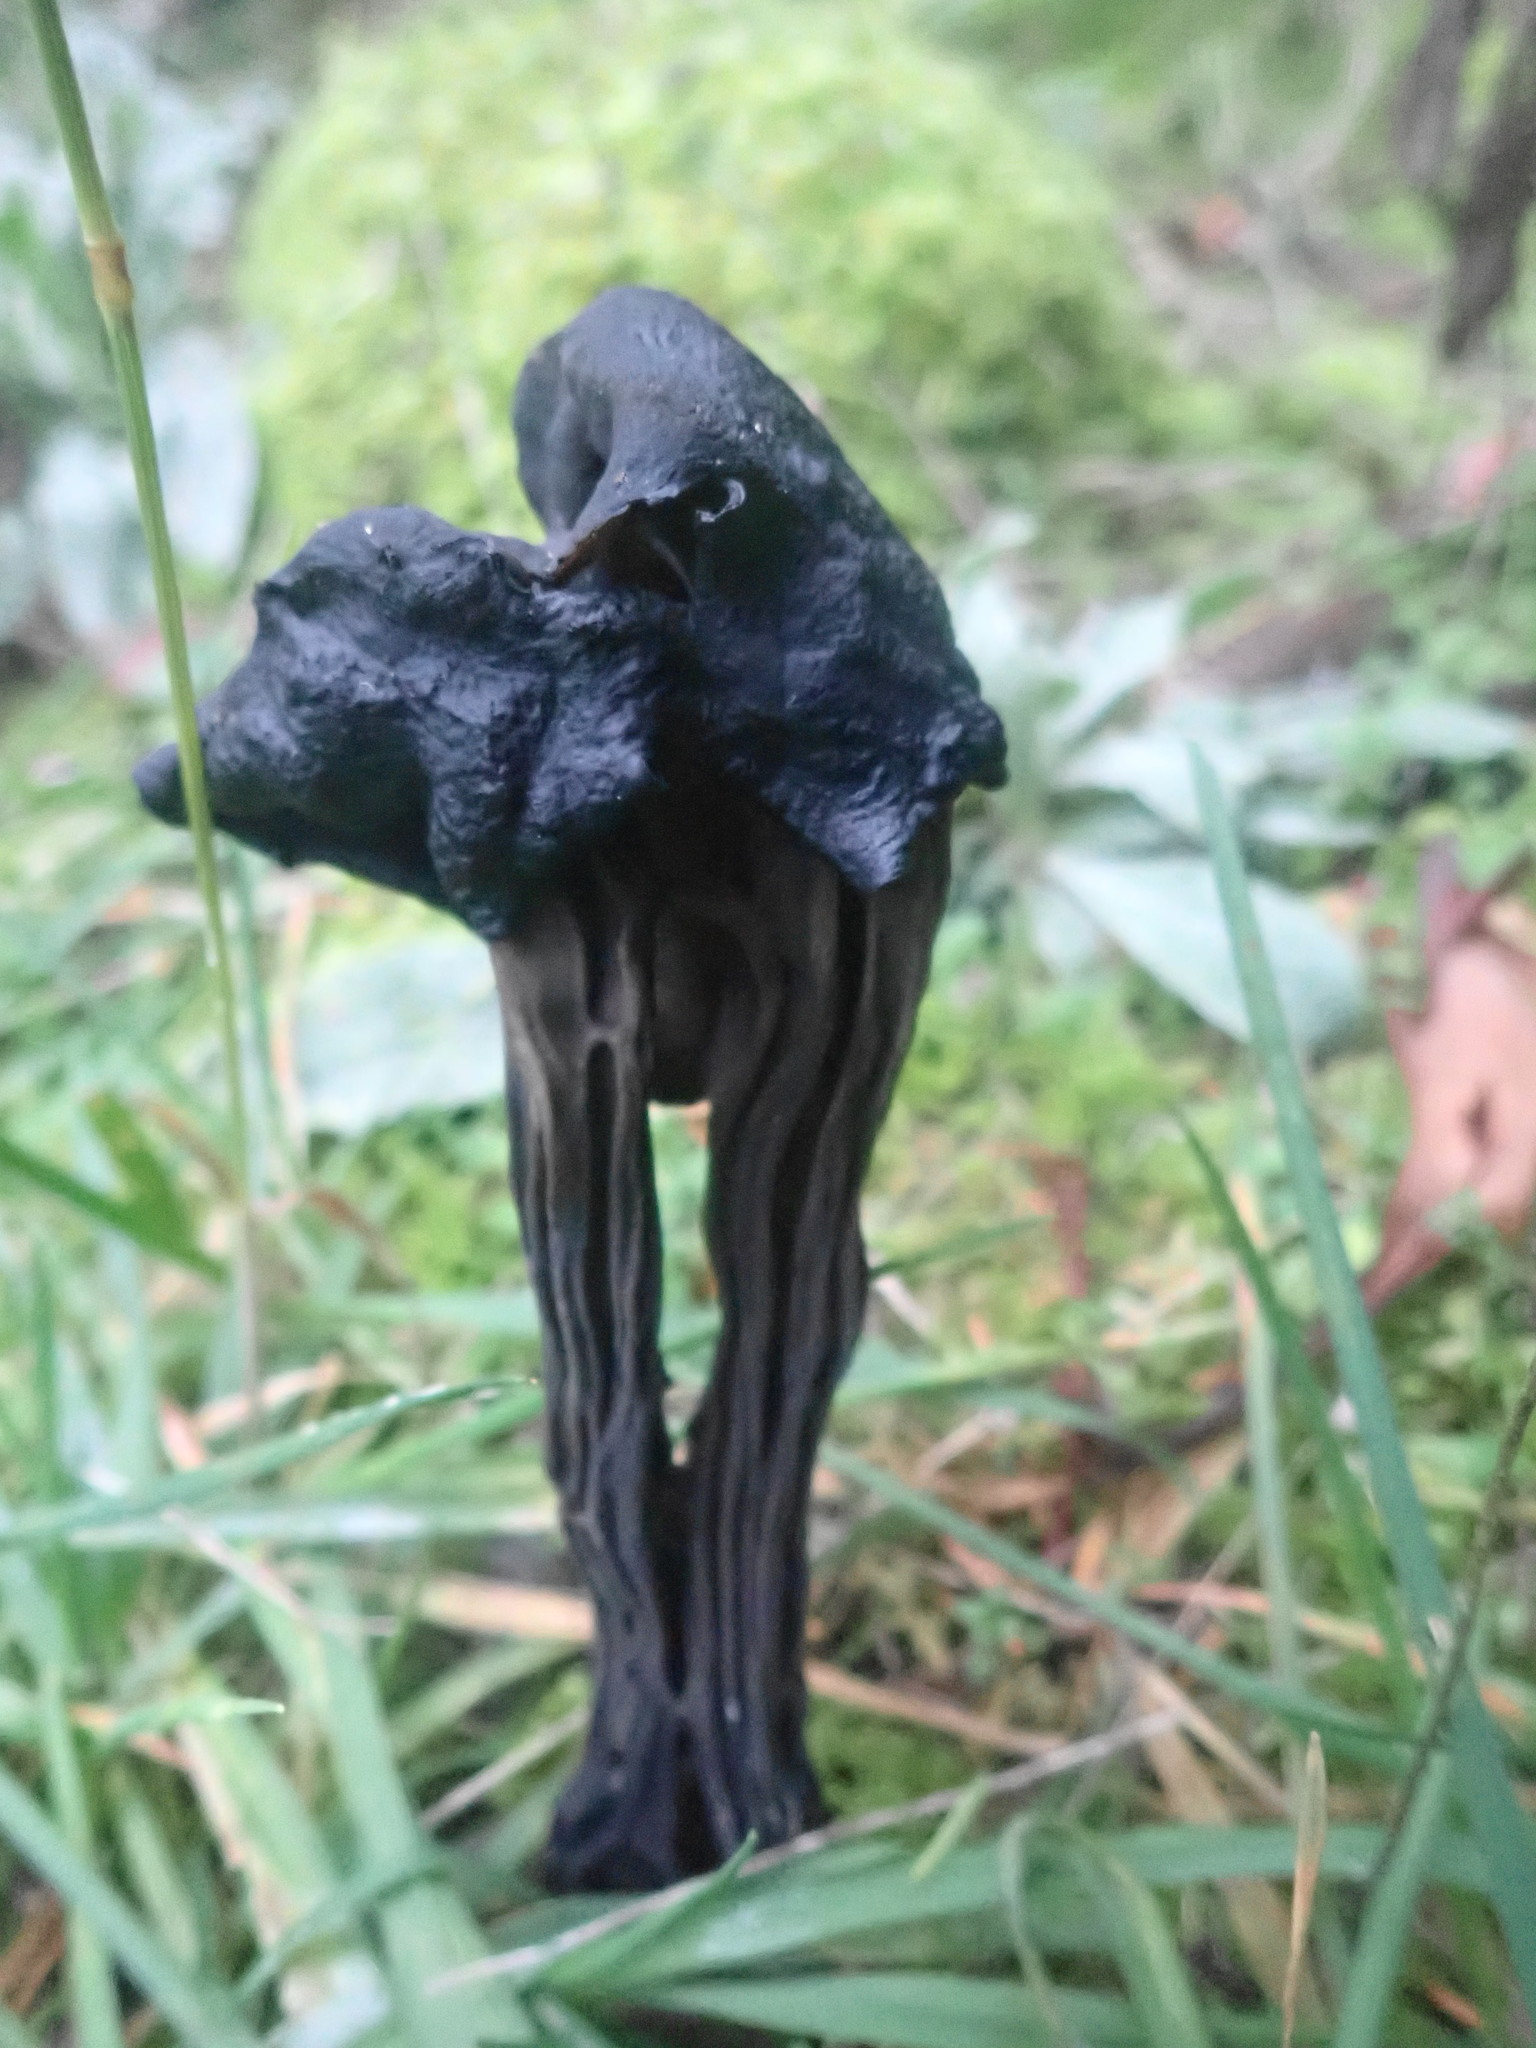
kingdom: Fungi
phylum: Ascomycota
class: Pezizomycetes
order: Pezizales
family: Helvellaceae
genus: Helvella
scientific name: Helvella vespertina
